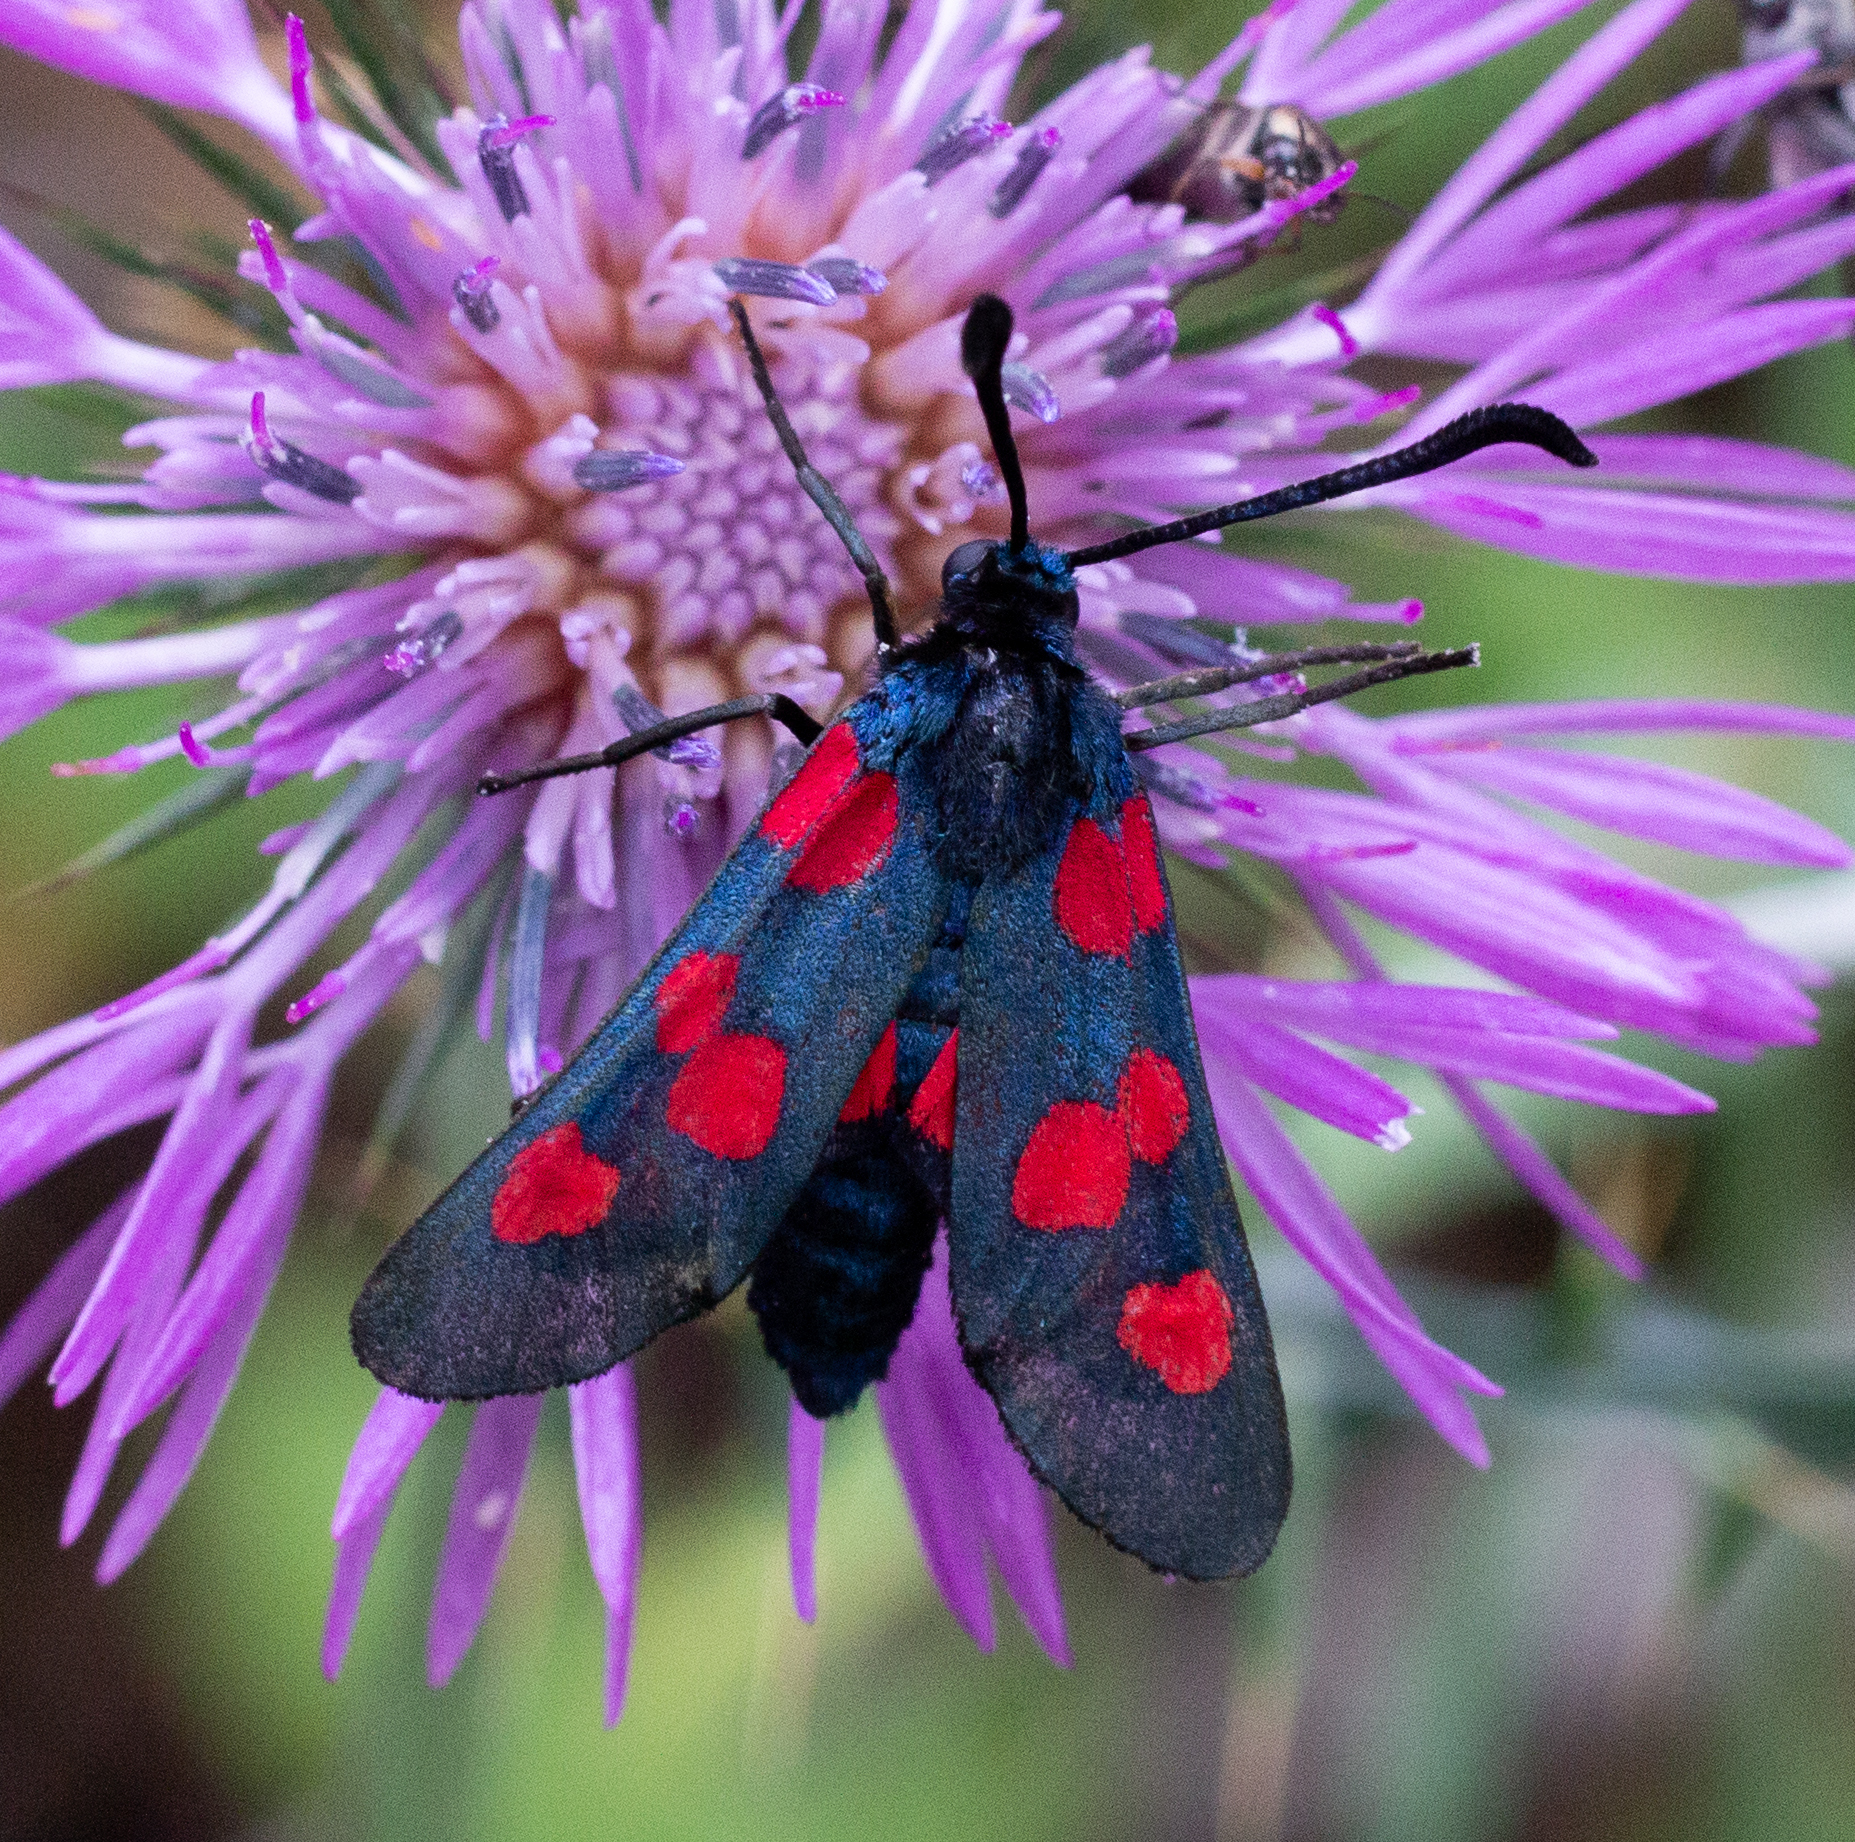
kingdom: Animalia
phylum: Arthropoda
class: Insecta
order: Lepidoptera
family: Zygaenidae
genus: Zygaena
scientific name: Zygaena trifolii
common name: Five-spot burnet
